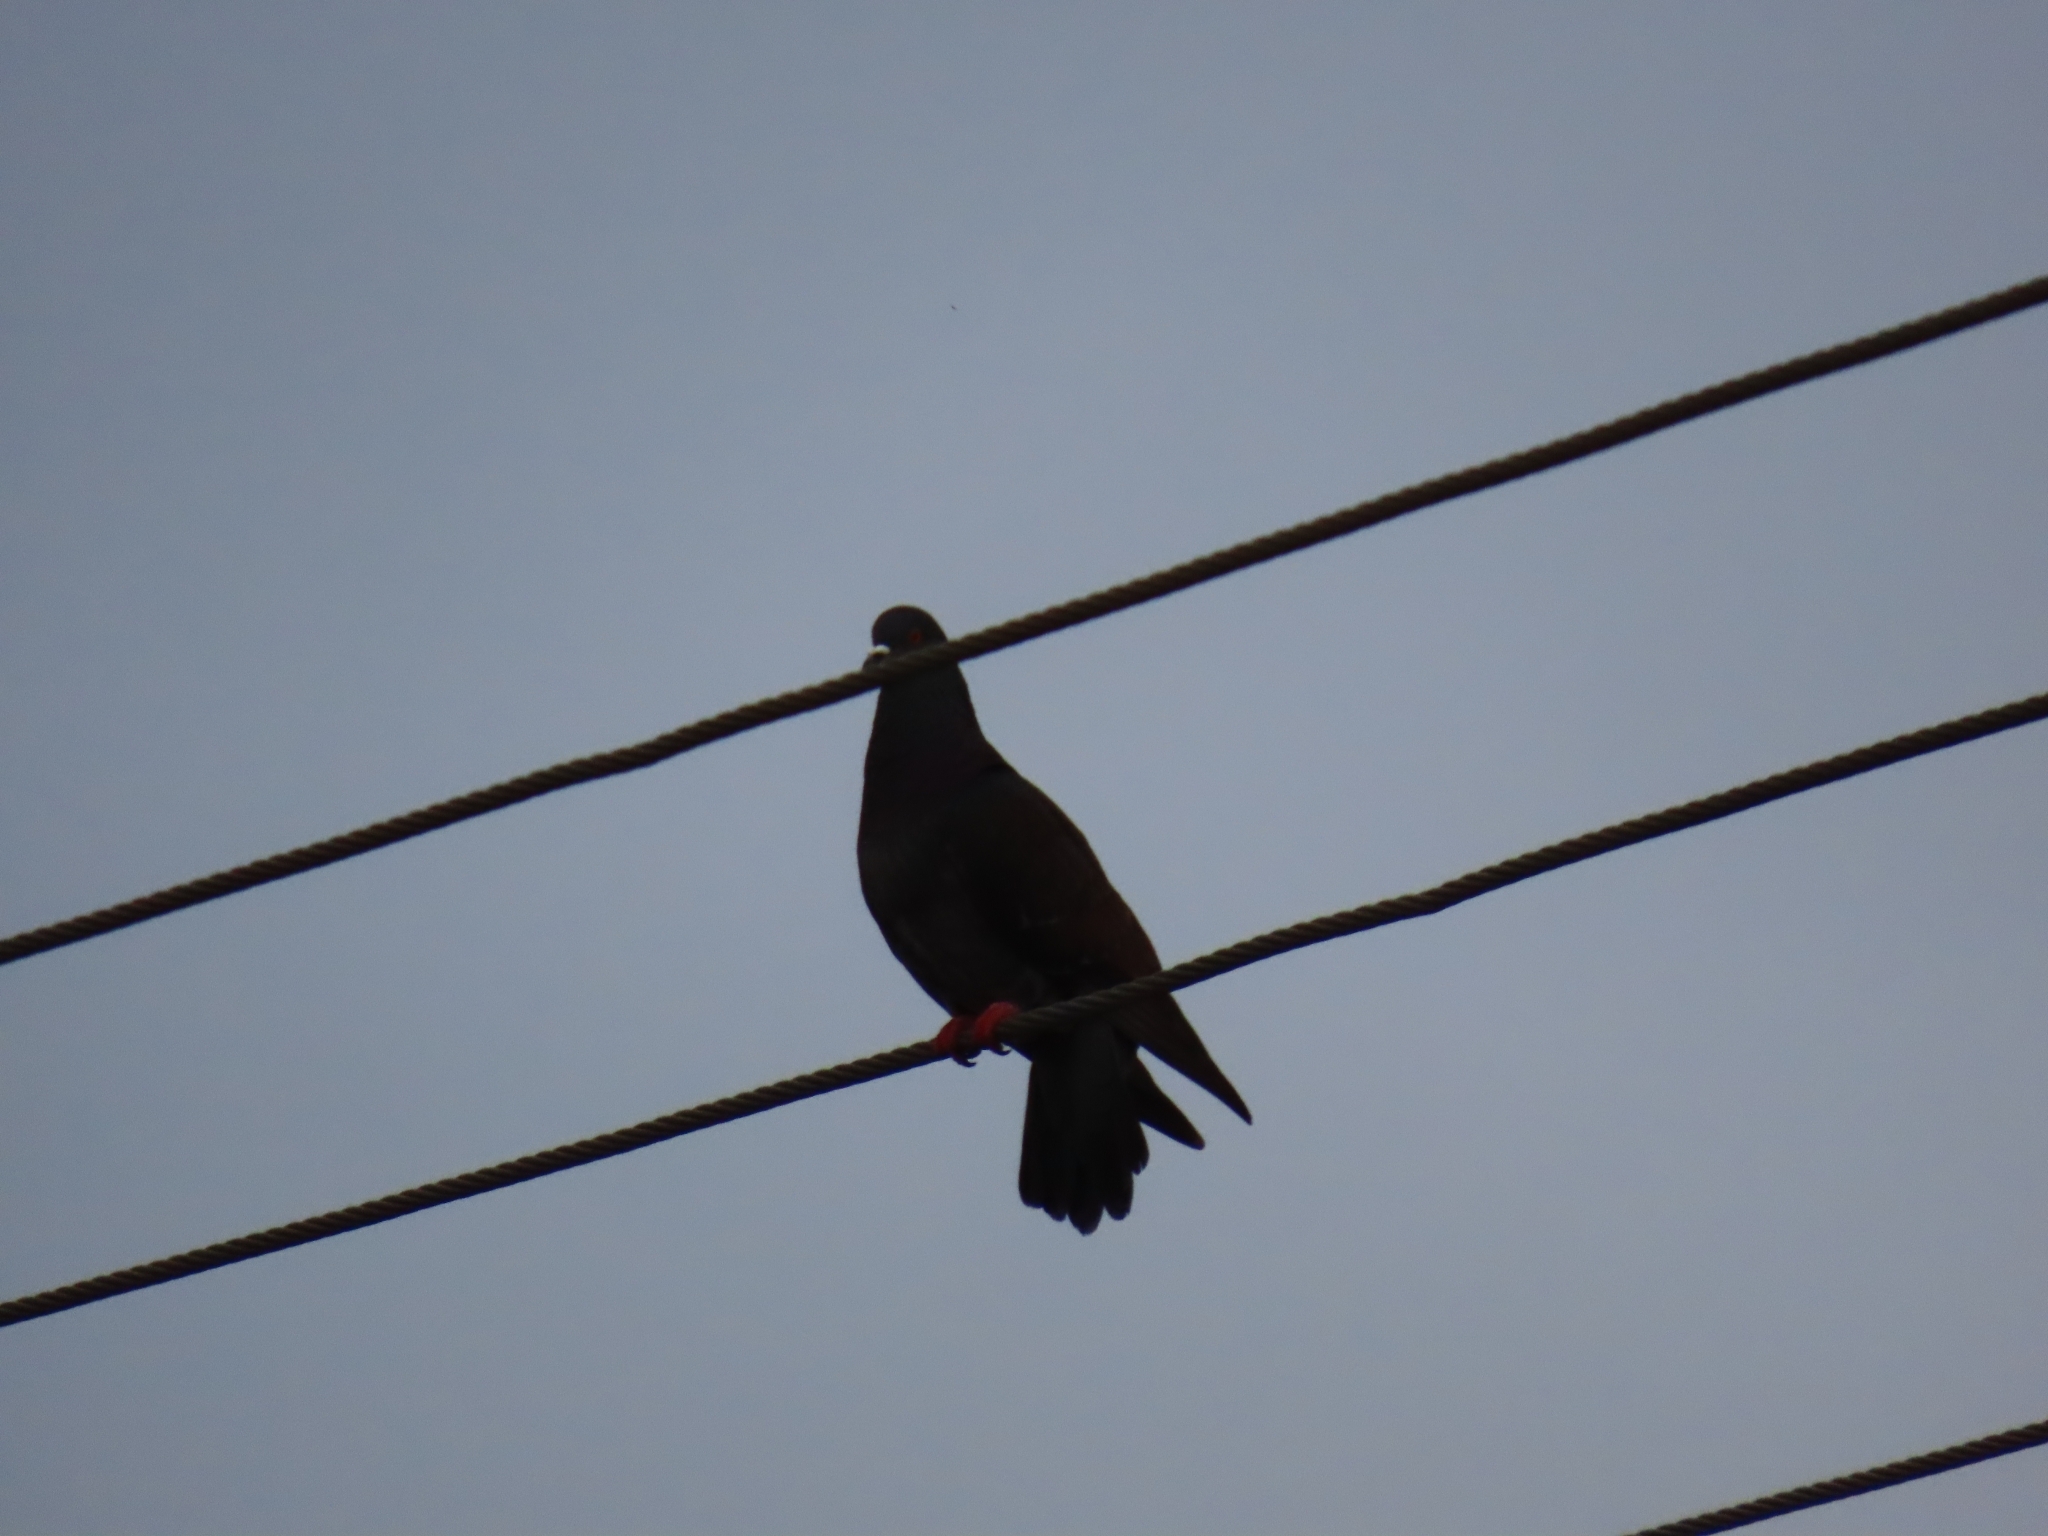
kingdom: Animalia
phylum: Chordata
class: Aves
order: Columbiformes
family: Columbidae
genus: Columba
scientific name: Columba livia
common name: Rock pigeon
